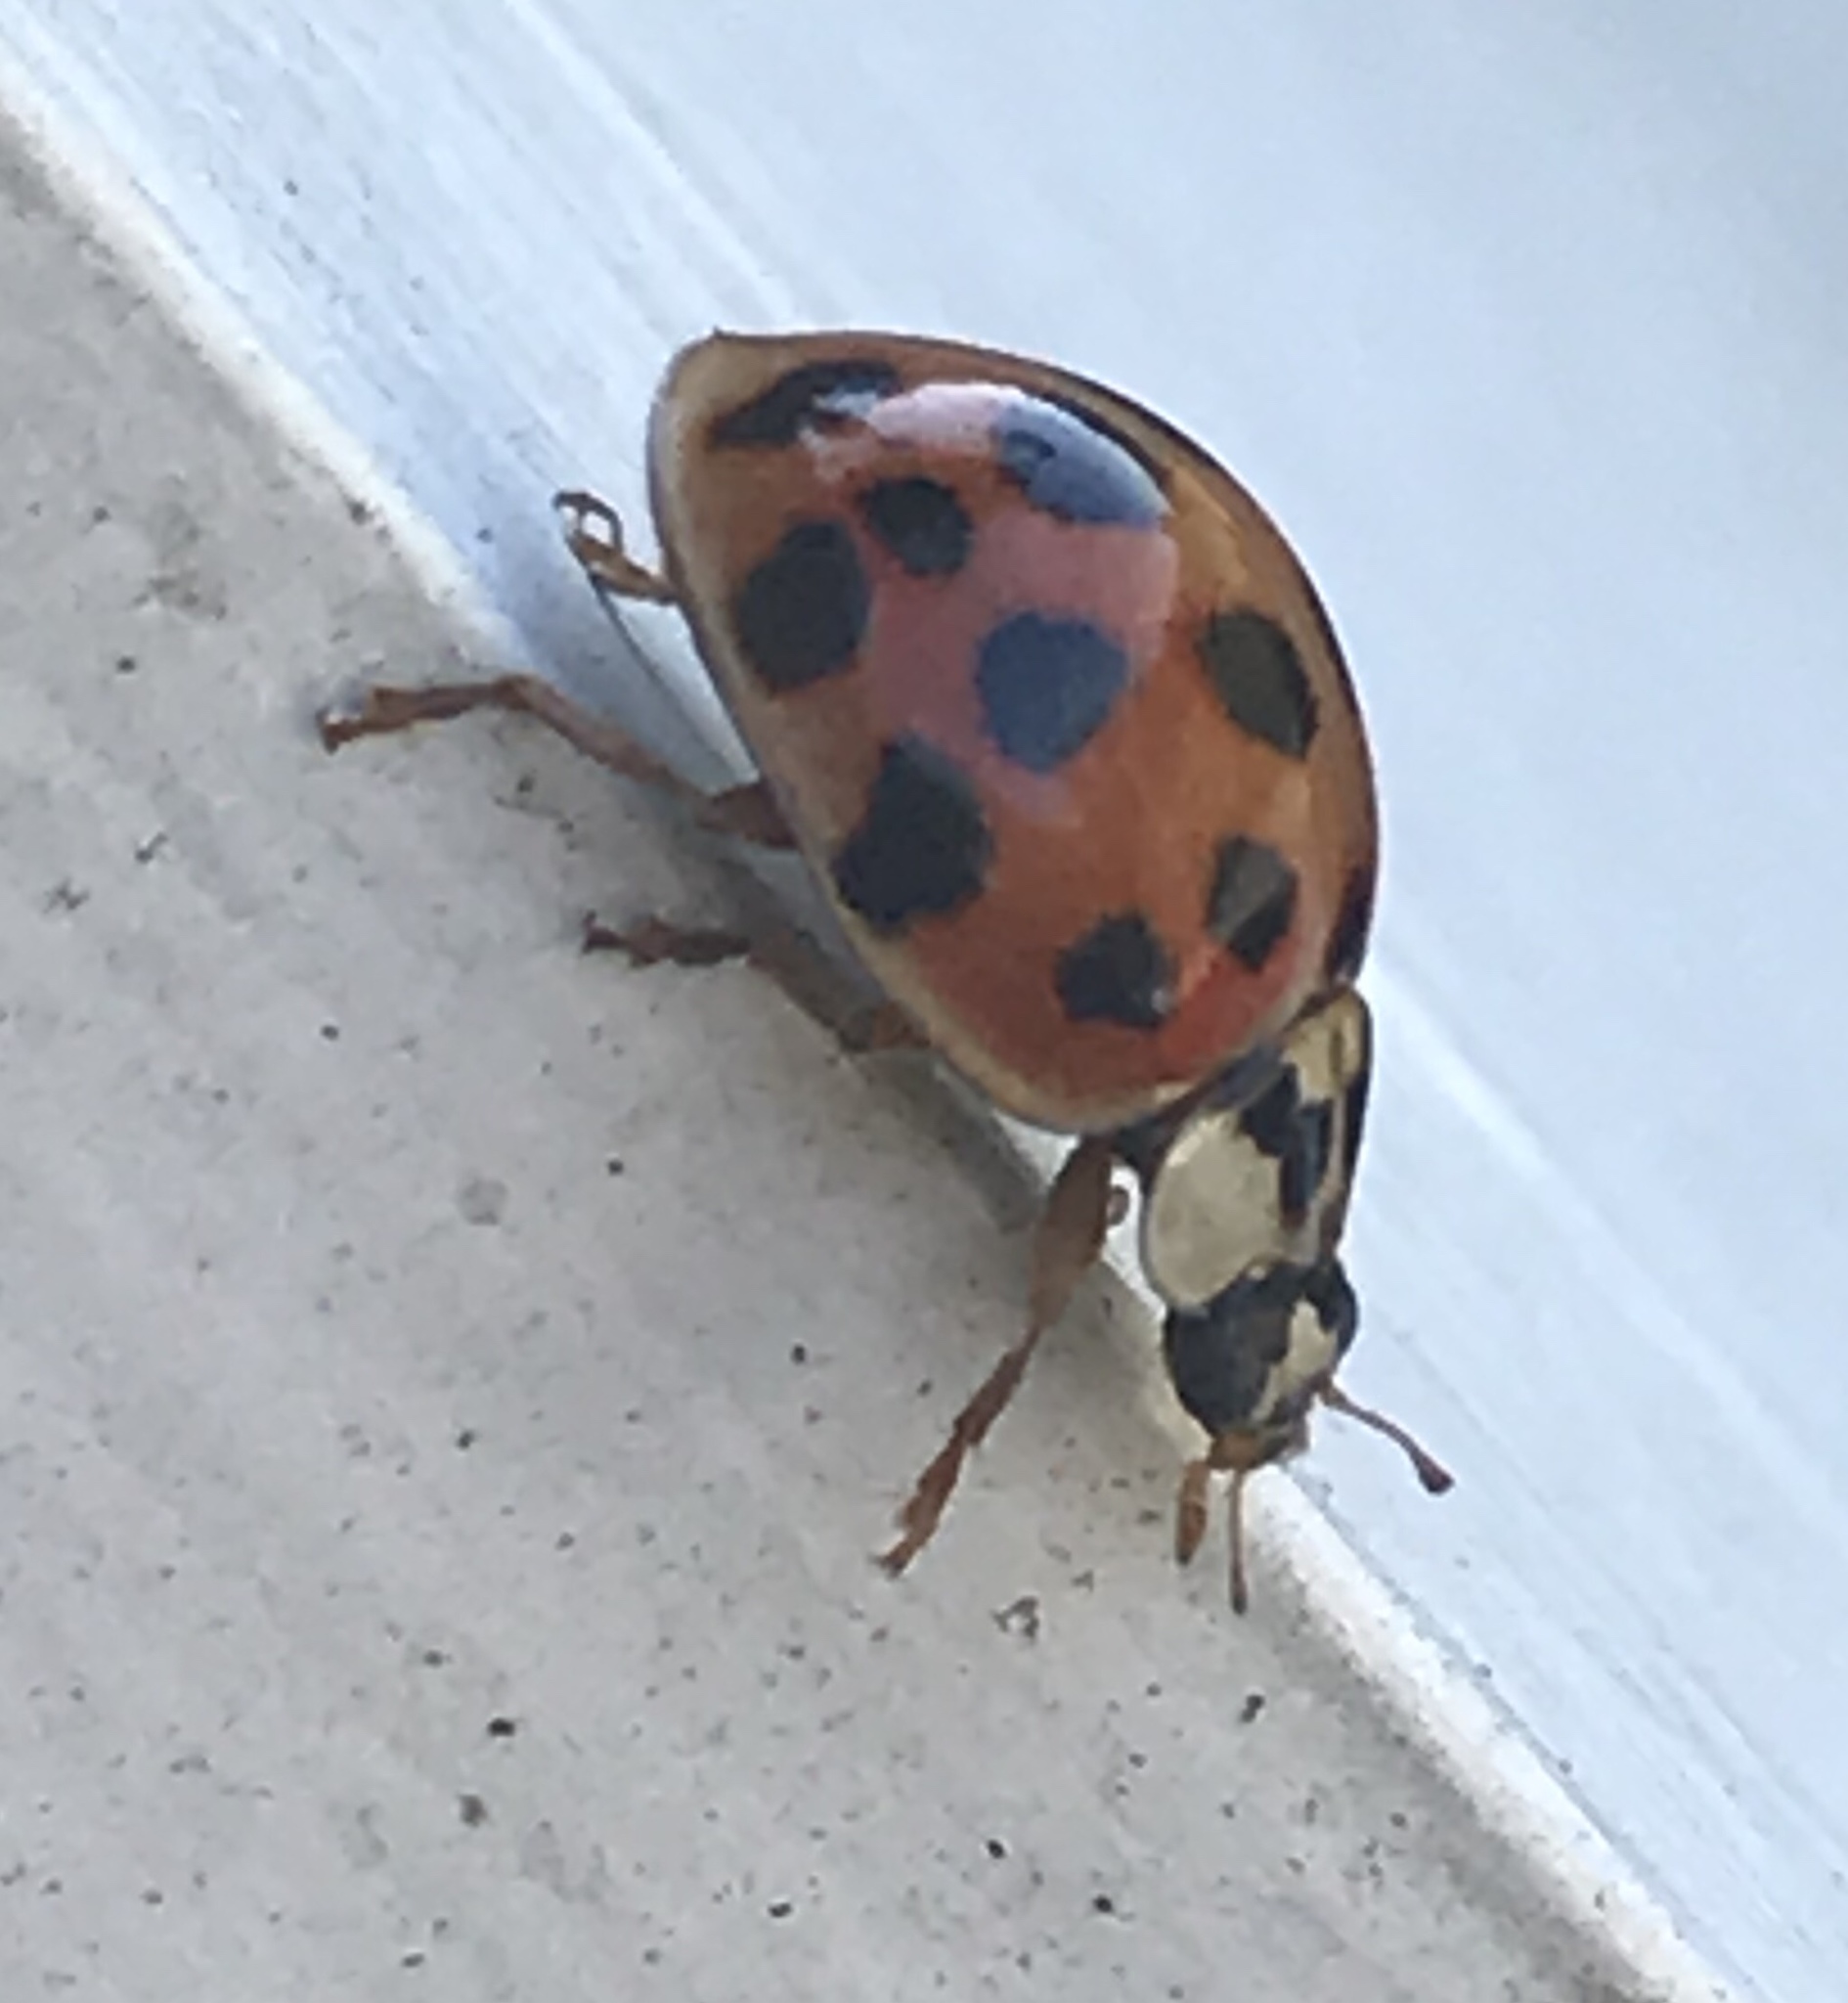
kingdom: Animalia
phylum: Arthropoda
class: Insecta
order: Coleoptera
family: Coccinellidae
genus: Harmonia
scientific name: Harmonia axyridis
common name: Harlequin ladybird
